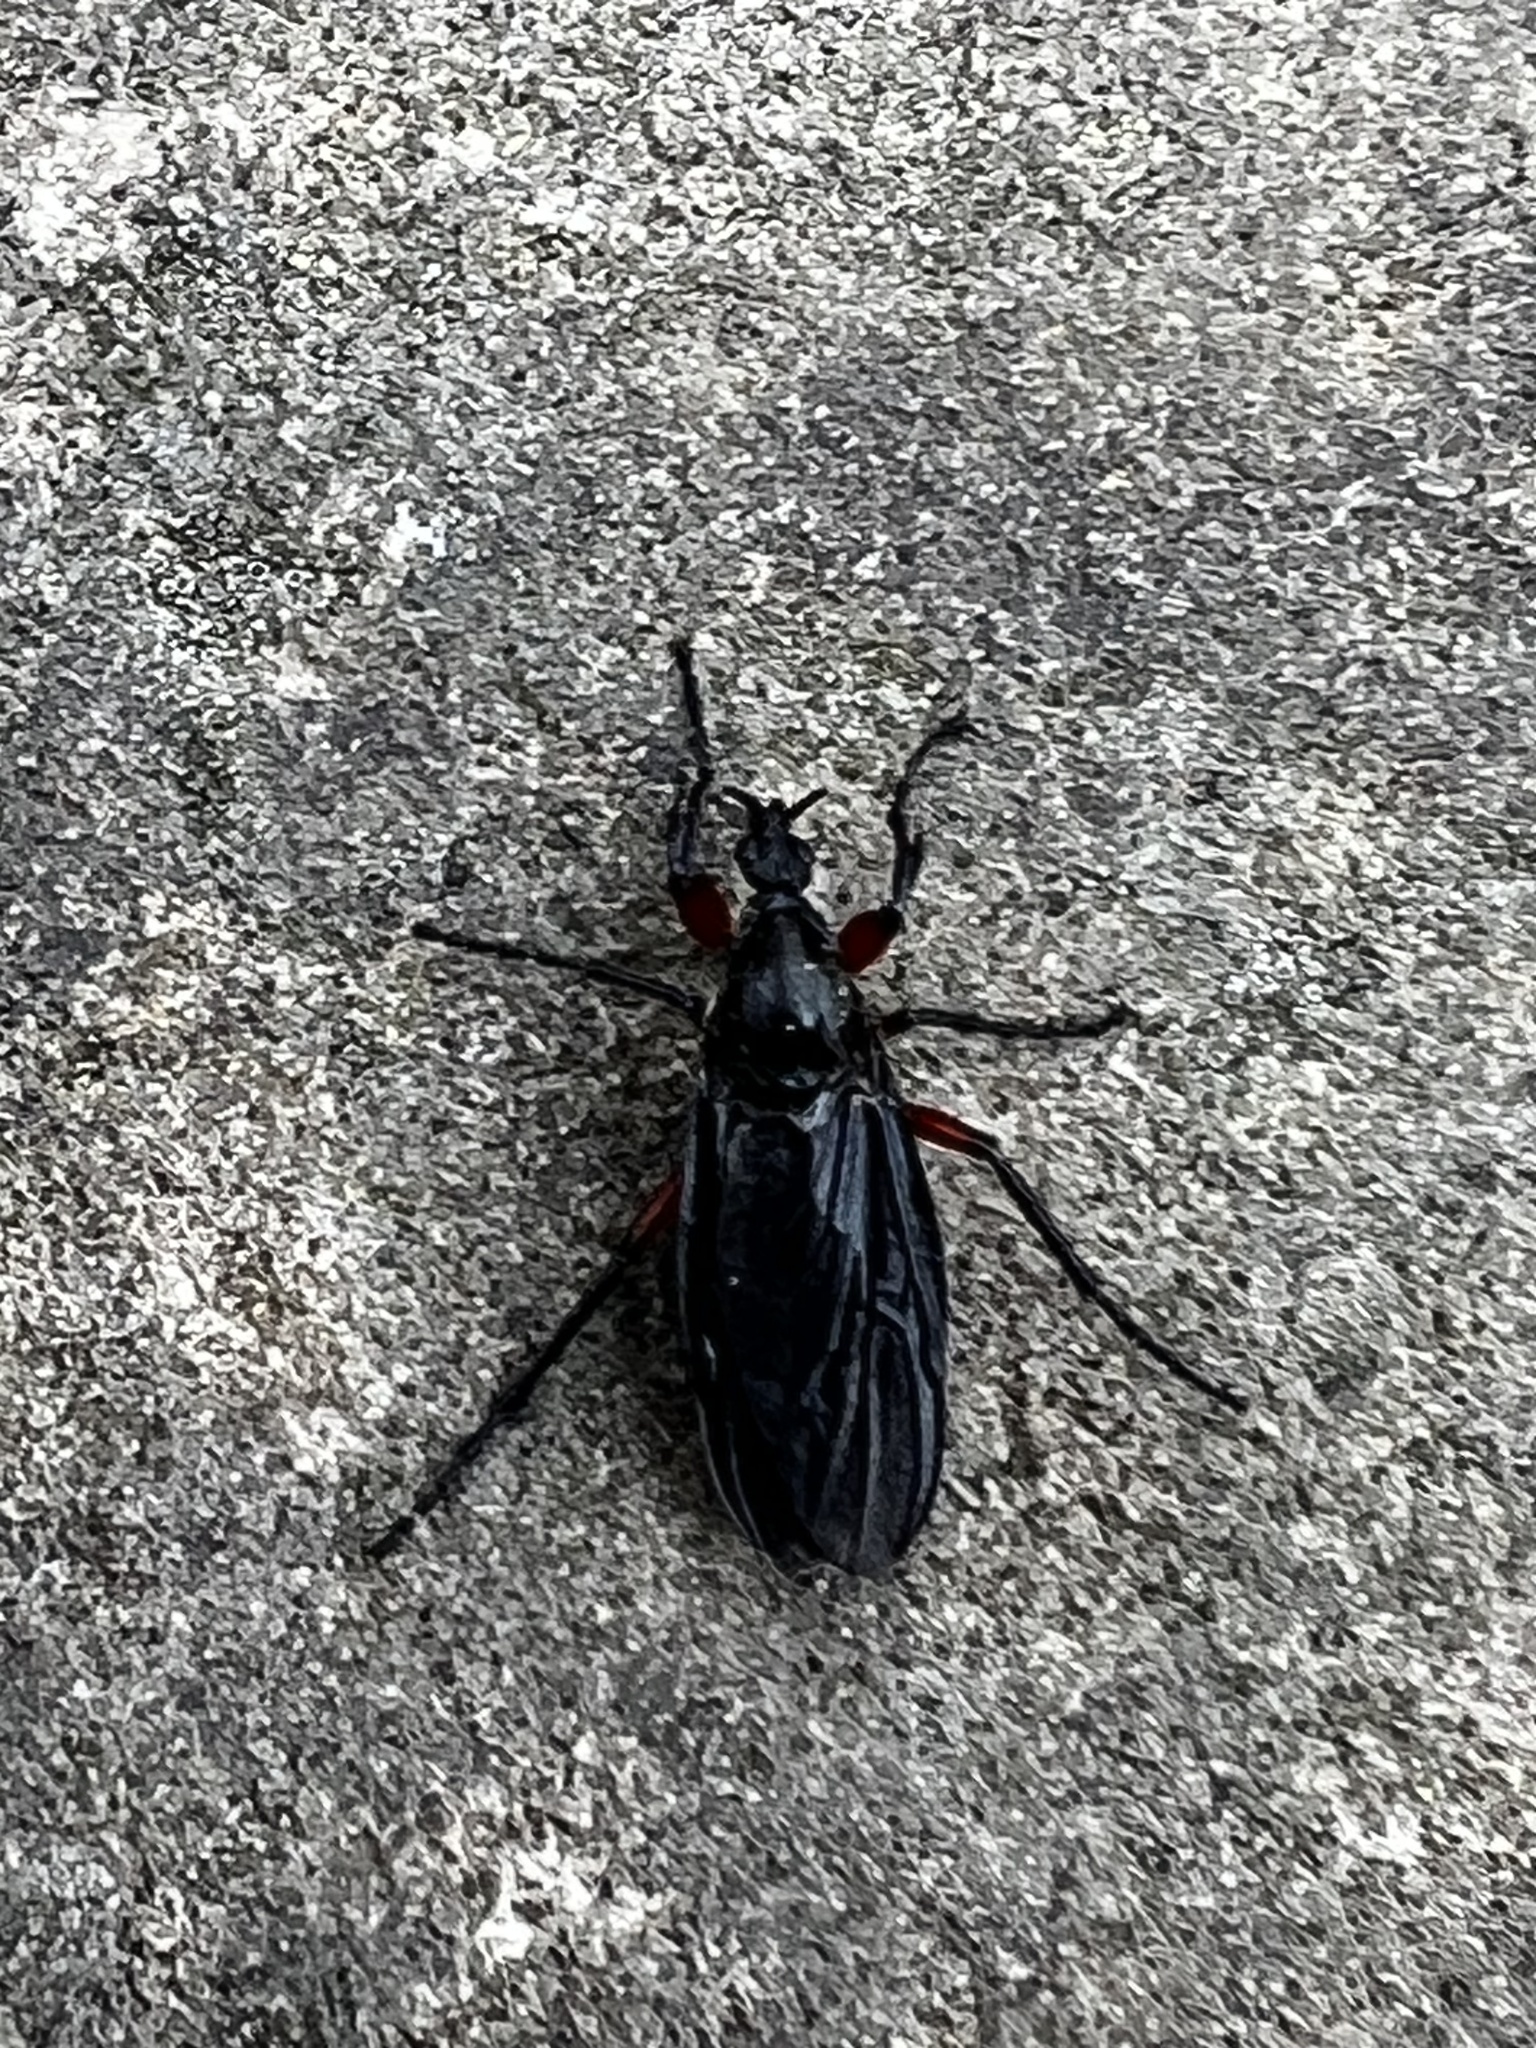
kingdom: Animalia
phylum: Arthropoda
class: Insecta
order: Diptera
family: Bibionidae
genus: Bibio
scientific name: Bibio femoratus
